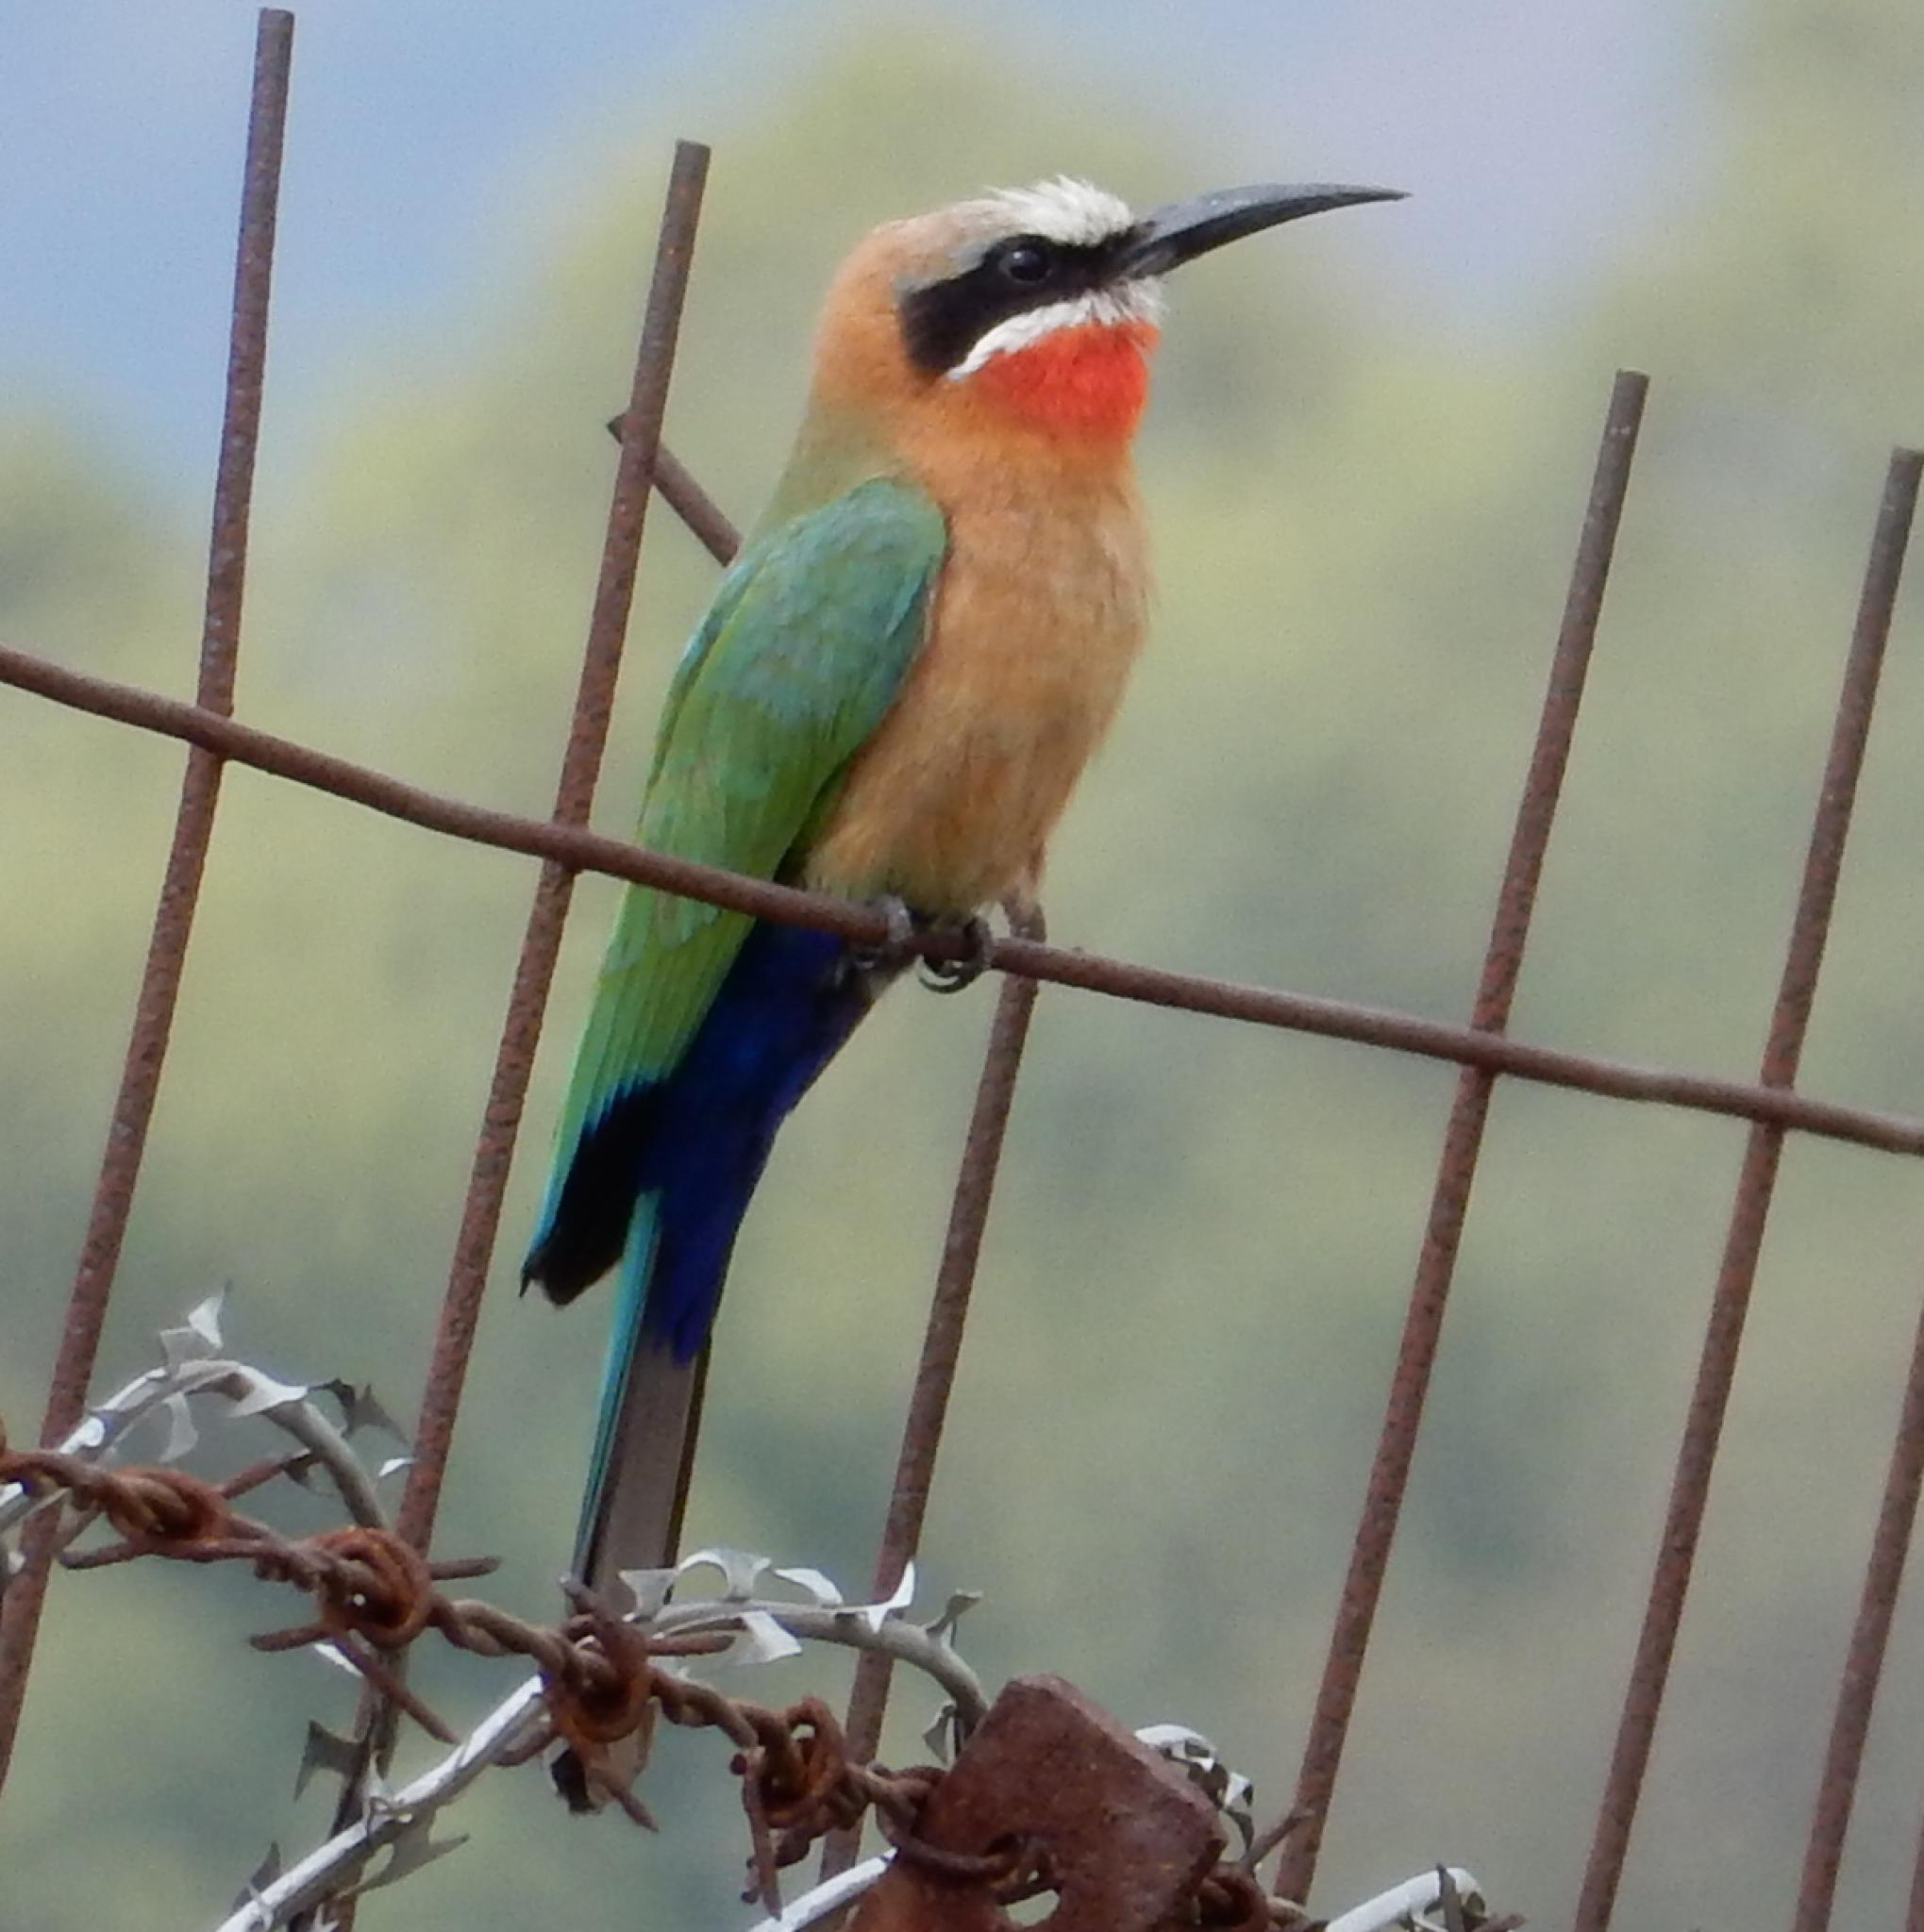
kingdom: Animalia
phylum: Chordata
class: Aves
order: Coraciiformes
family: Meropidae
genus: Merops
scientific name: Merops bullockoides
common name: White-fronted bee-eater
